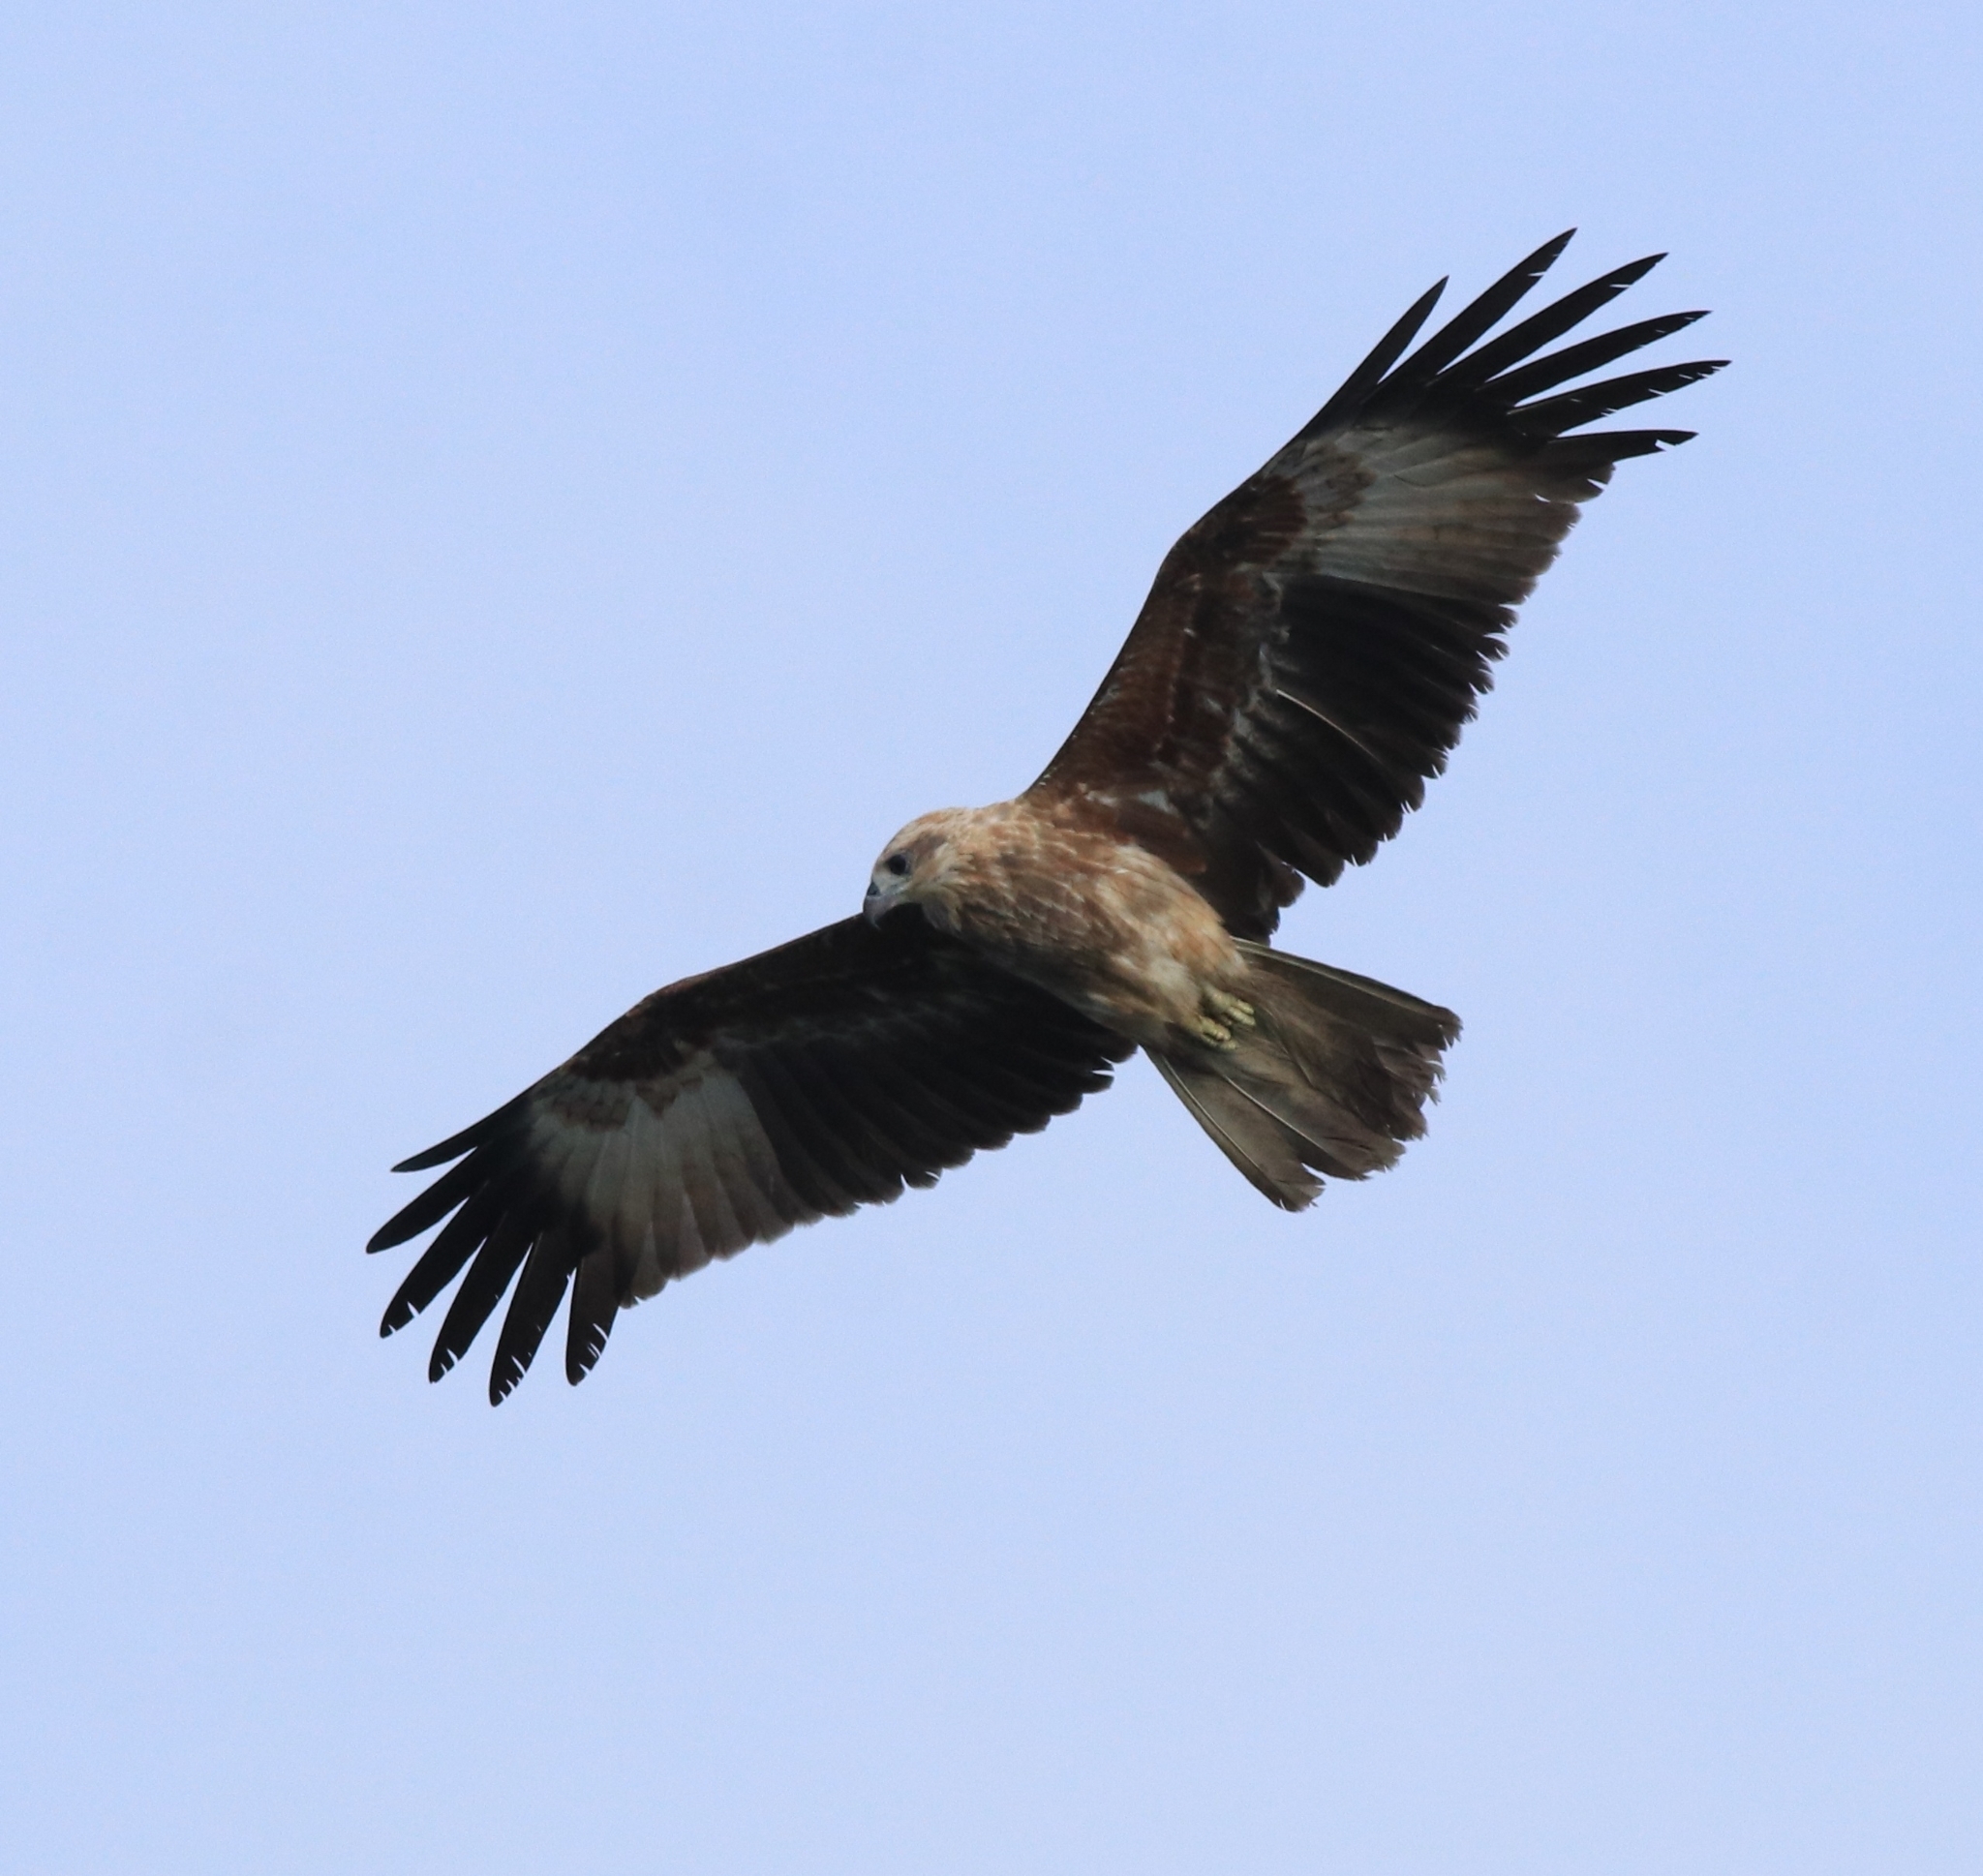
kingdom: Animalia
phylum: Chordata
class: Aves
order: Accipitriformes
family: Accipitridae
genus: Haliastur
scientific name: Haliastur indus
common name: Brahminy kite
